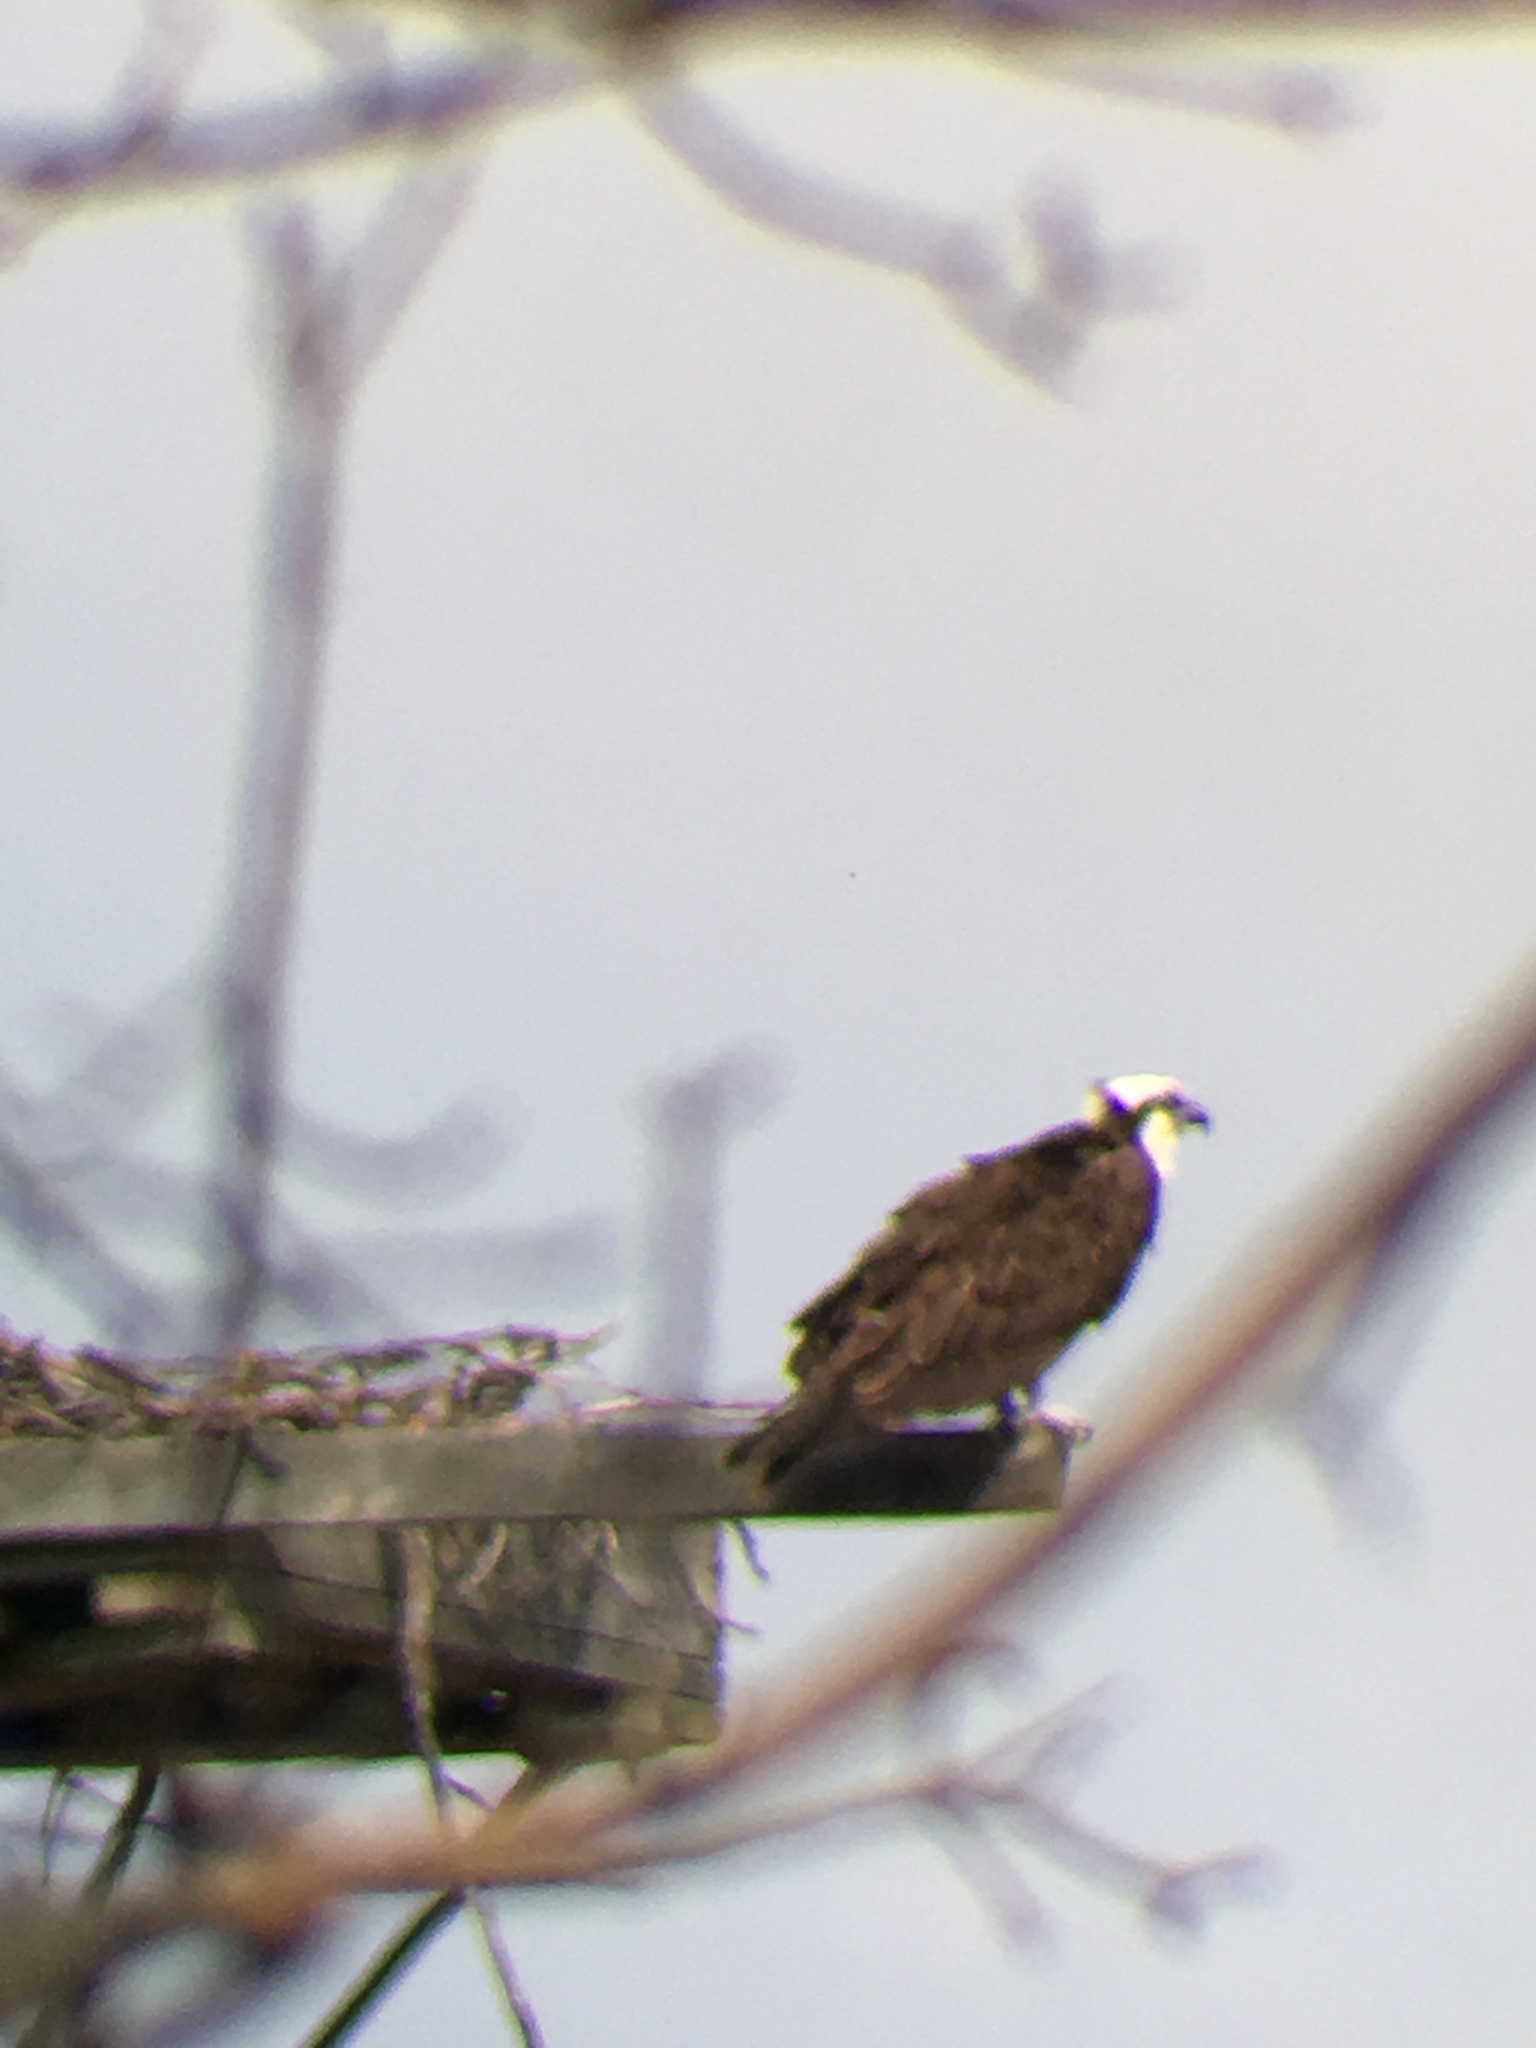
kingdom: Animalia
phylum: Chordata
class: Aves
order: Accipitriformes
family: Pandionidae
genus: Pandion
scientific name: Pandion haliaetus
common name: Osprey
